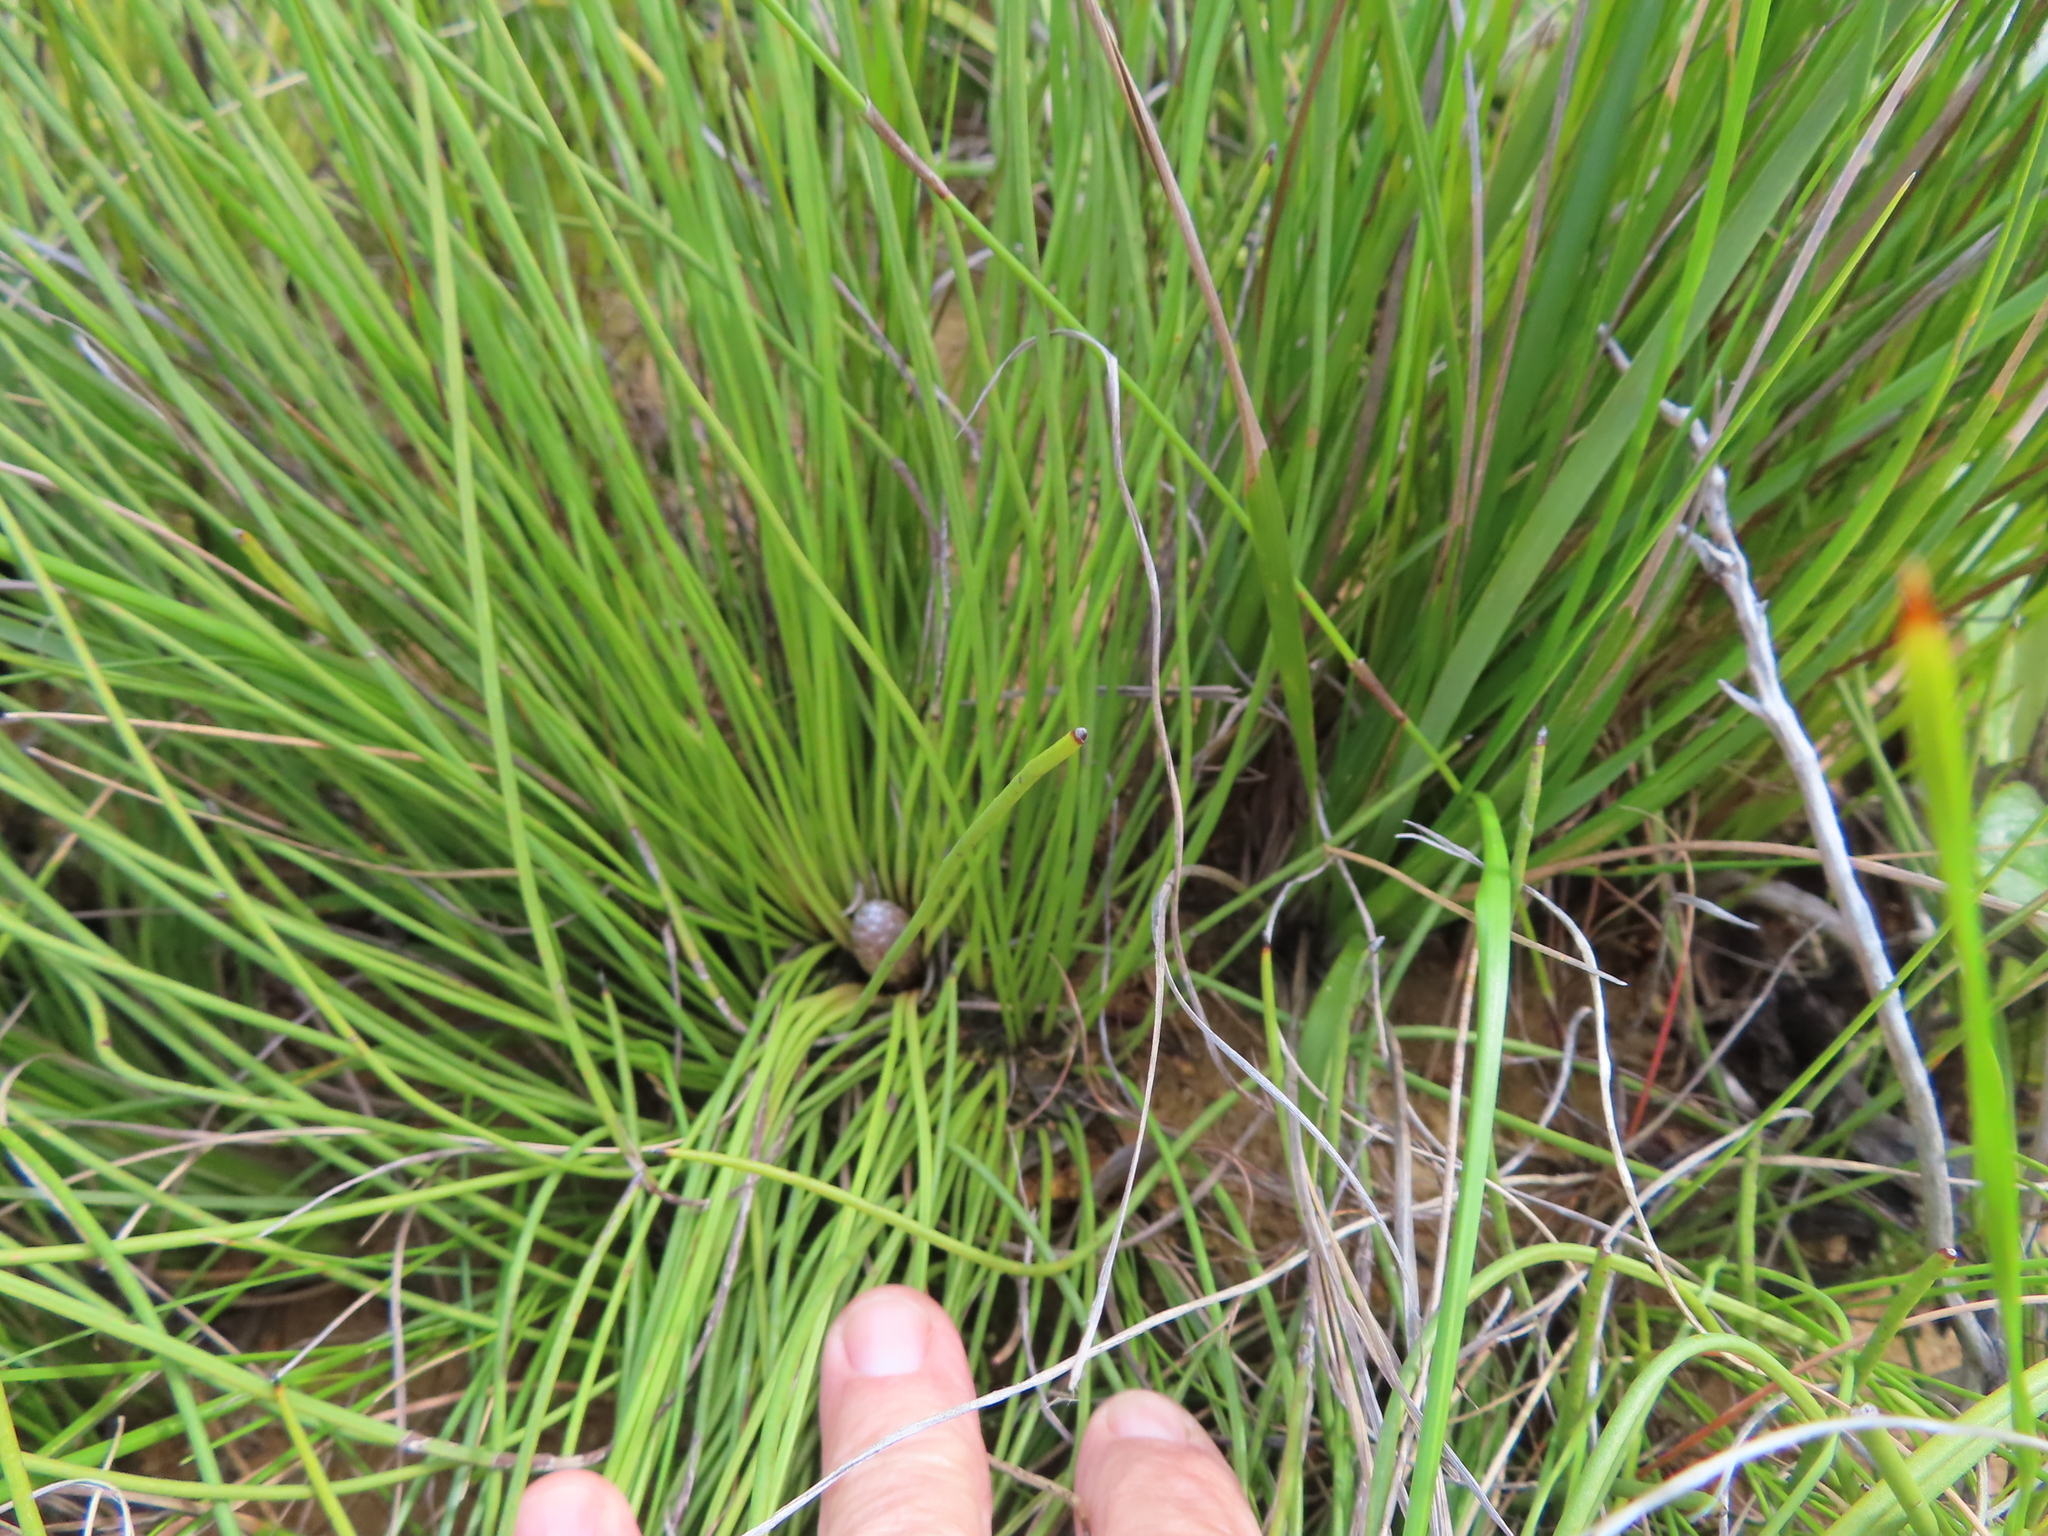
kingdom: Plantae
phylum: Tracheophyta
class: Magnoliopsida
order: Proteales
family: Proteaceae
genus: Protea
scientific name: Protea lorea
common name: Thong-leaf sugarbush
